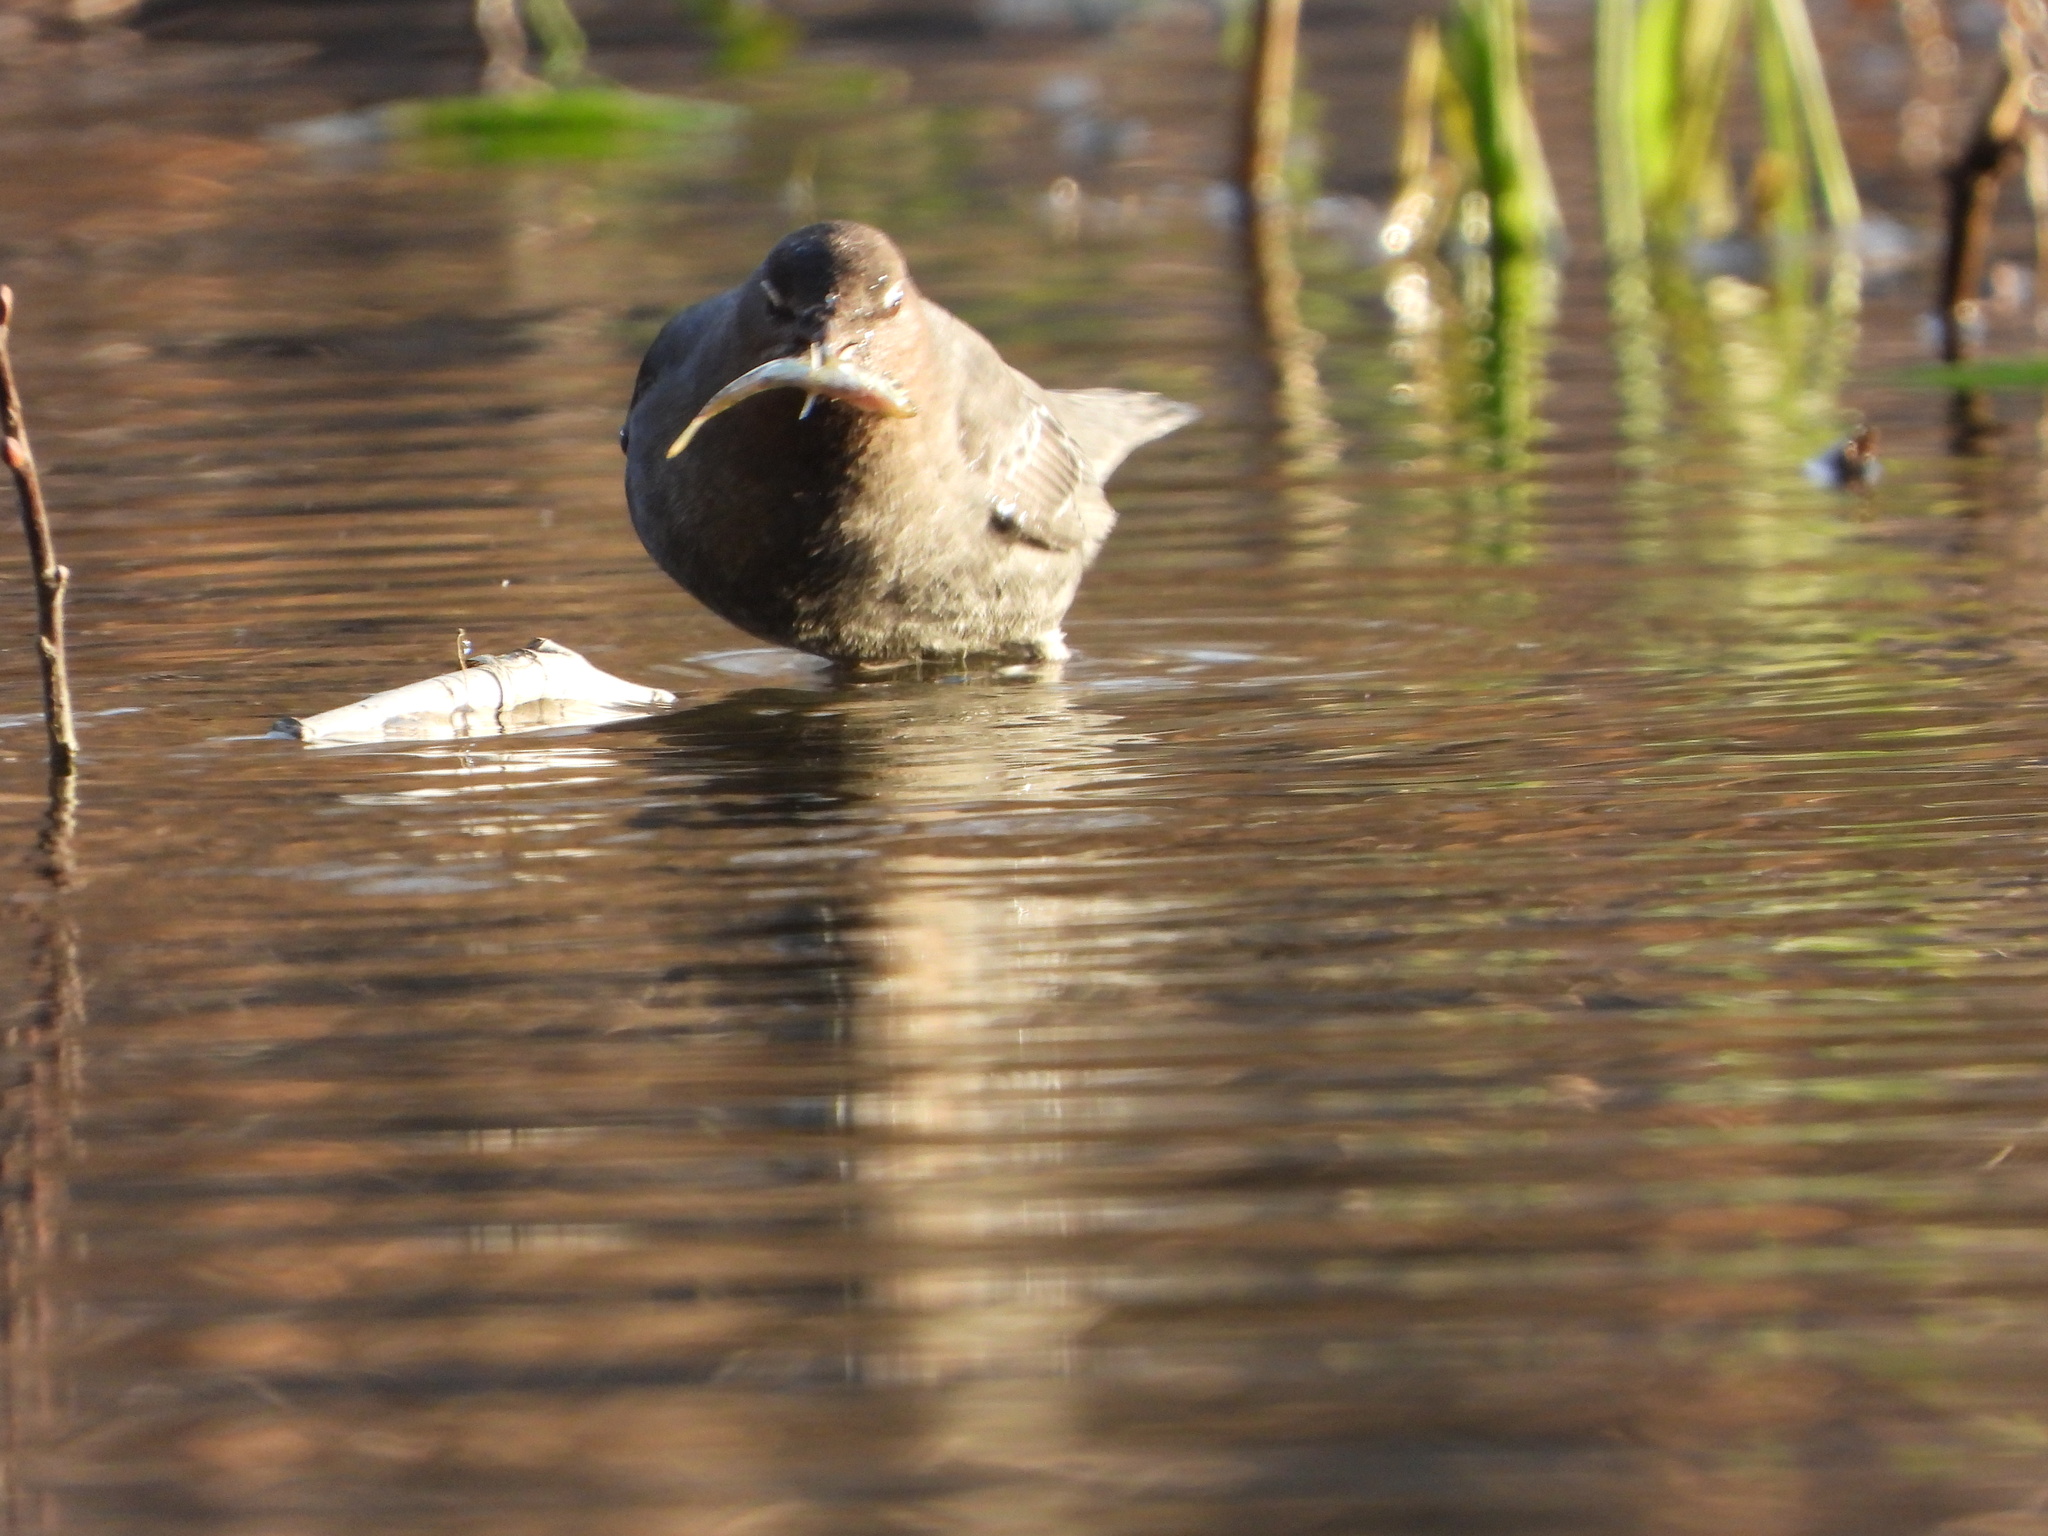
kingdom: Animalia
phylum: Chordata
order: Gasterosteiformes
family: Gasterosteidae
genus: Gasterosteus
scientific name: Gasterosteus aculeatus
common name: Three-spined stickleback
